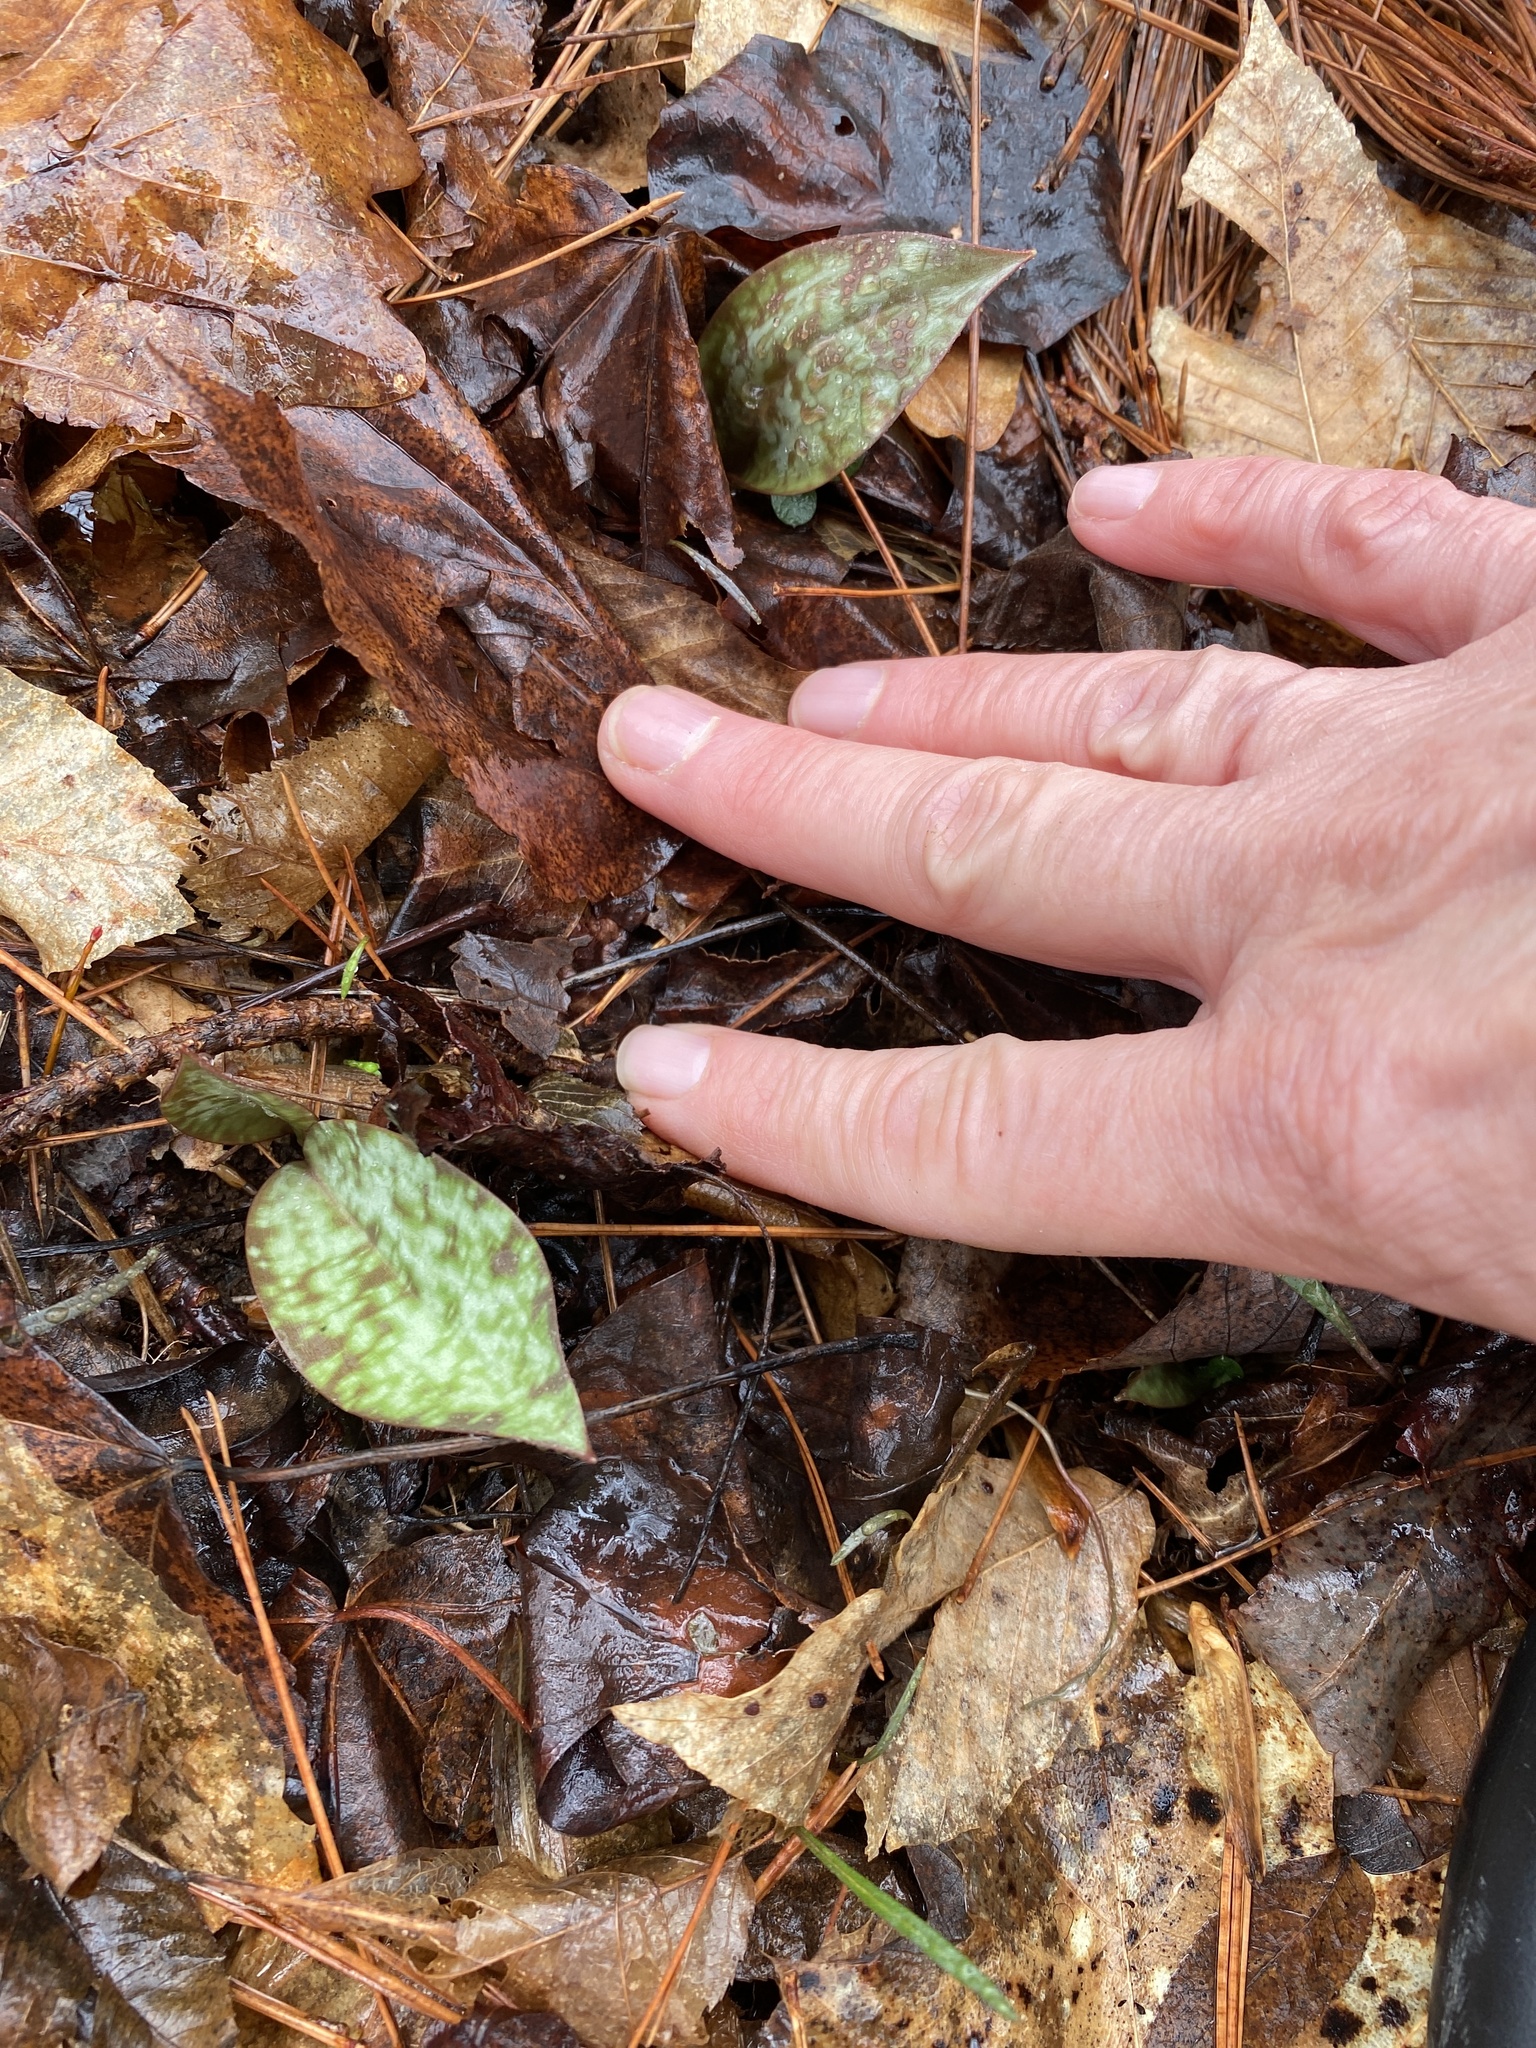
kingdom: Plantae
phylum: Tracheophyta
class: Liliopsida
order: Liliales
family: Liliaceae
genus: Erythronium
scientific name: Erythronium umbilicatum
